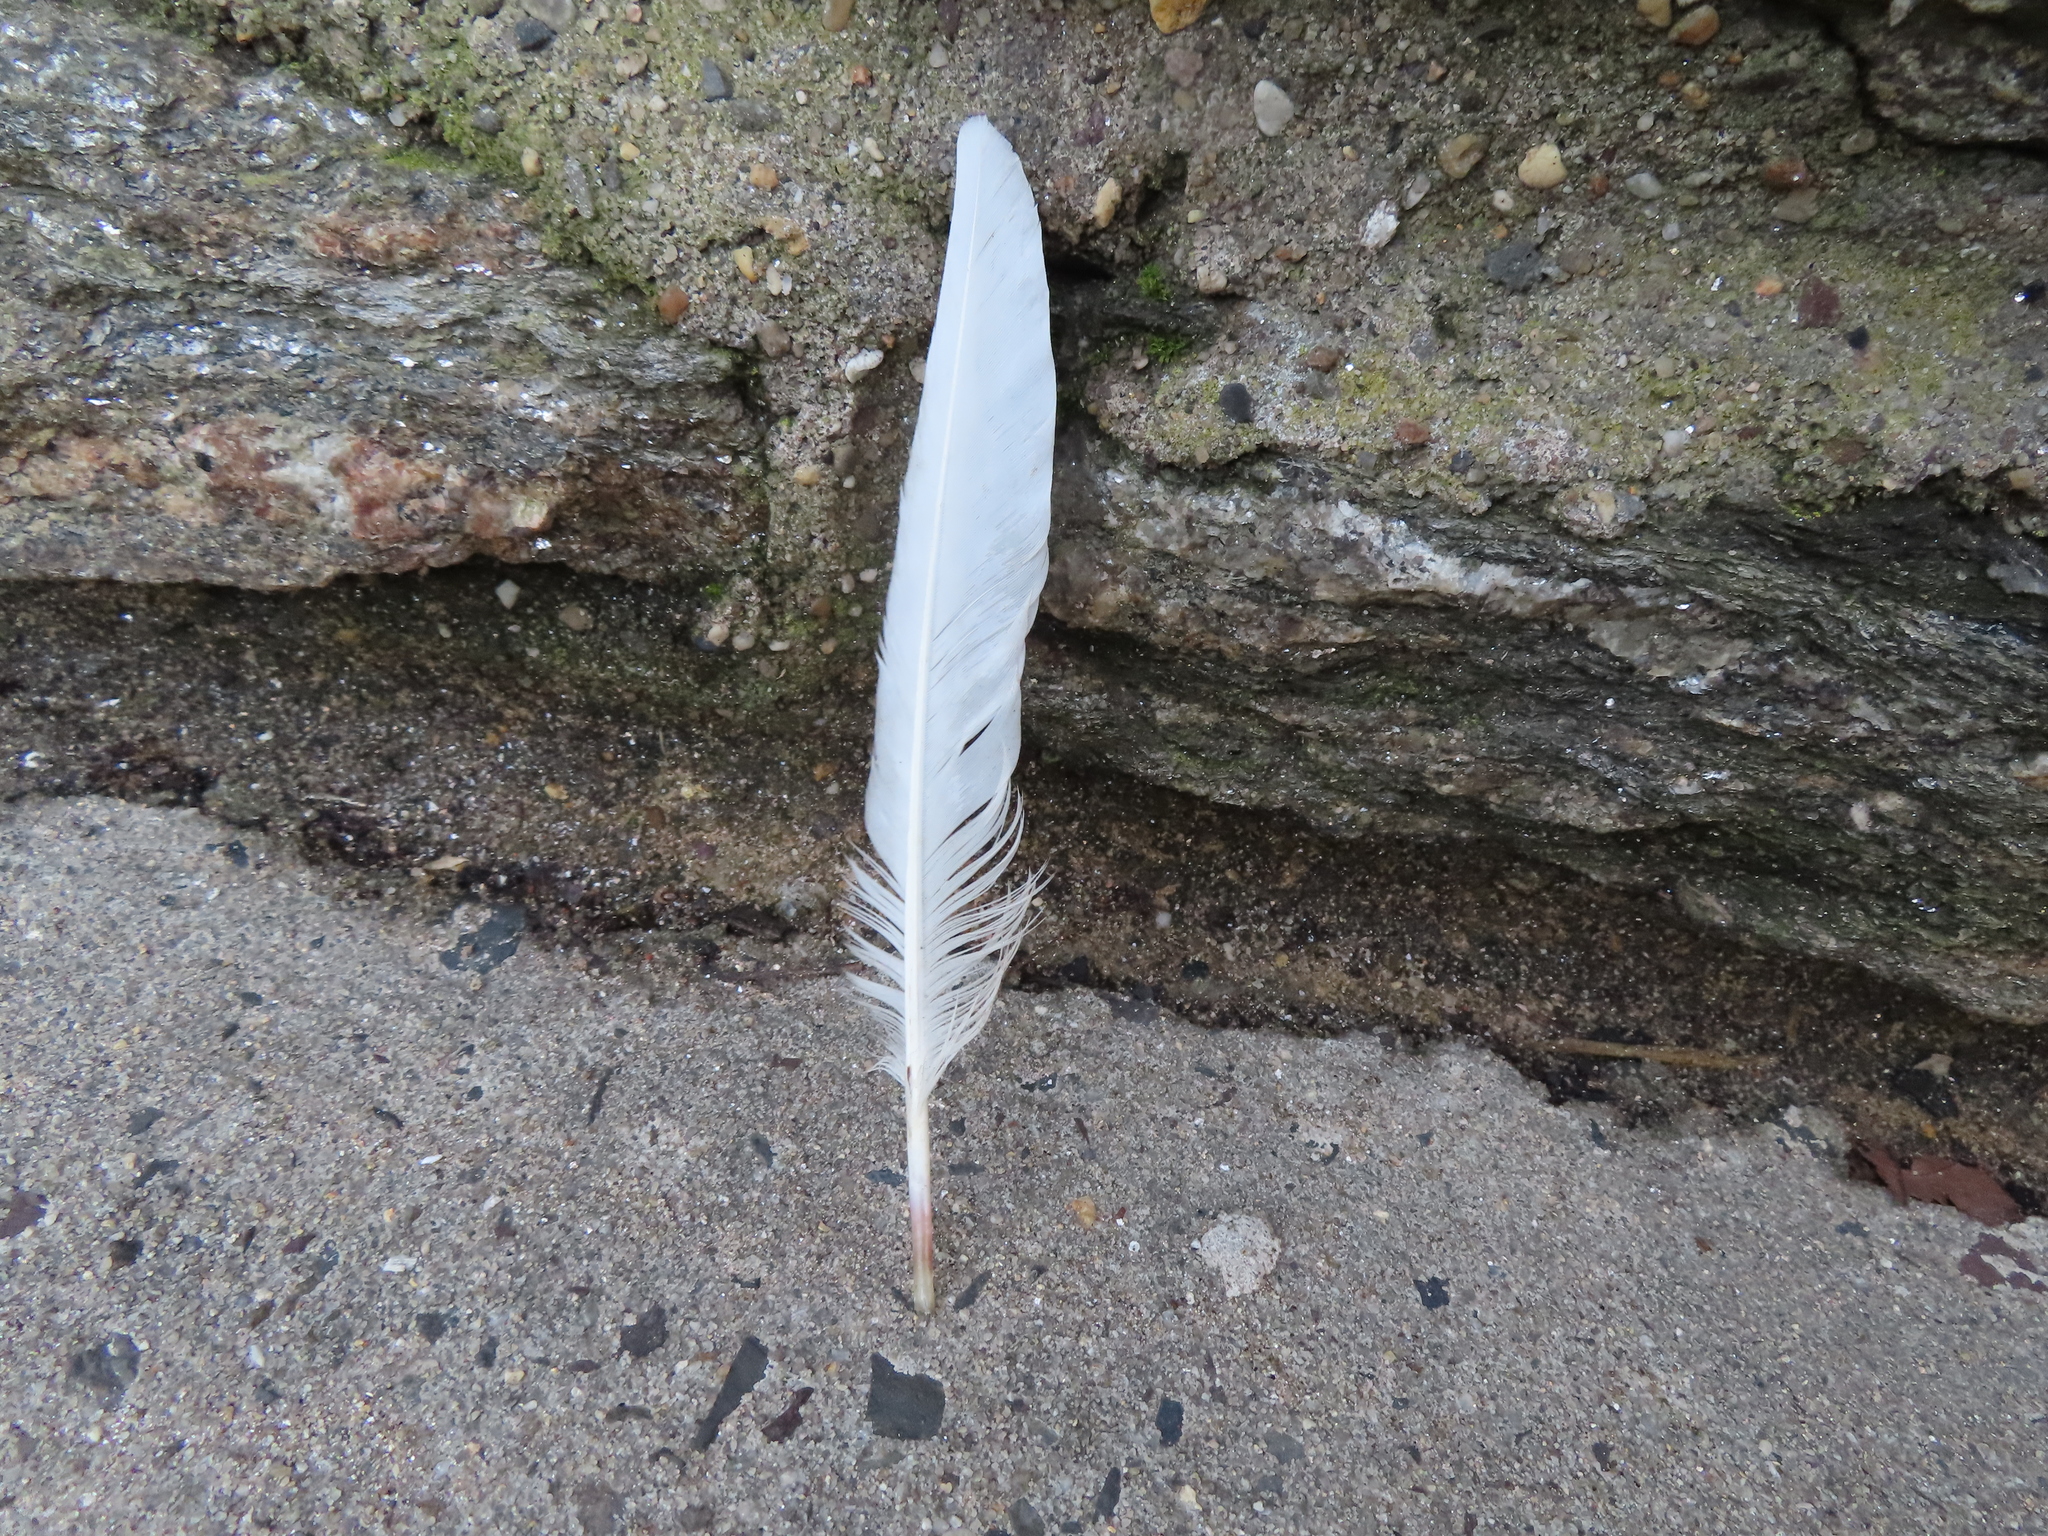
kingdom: Animalia
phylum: Chordata
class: Aves
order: Columbiformes
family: Columbidae
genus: Columba
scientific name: Columba livia
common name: Rock pigeon
